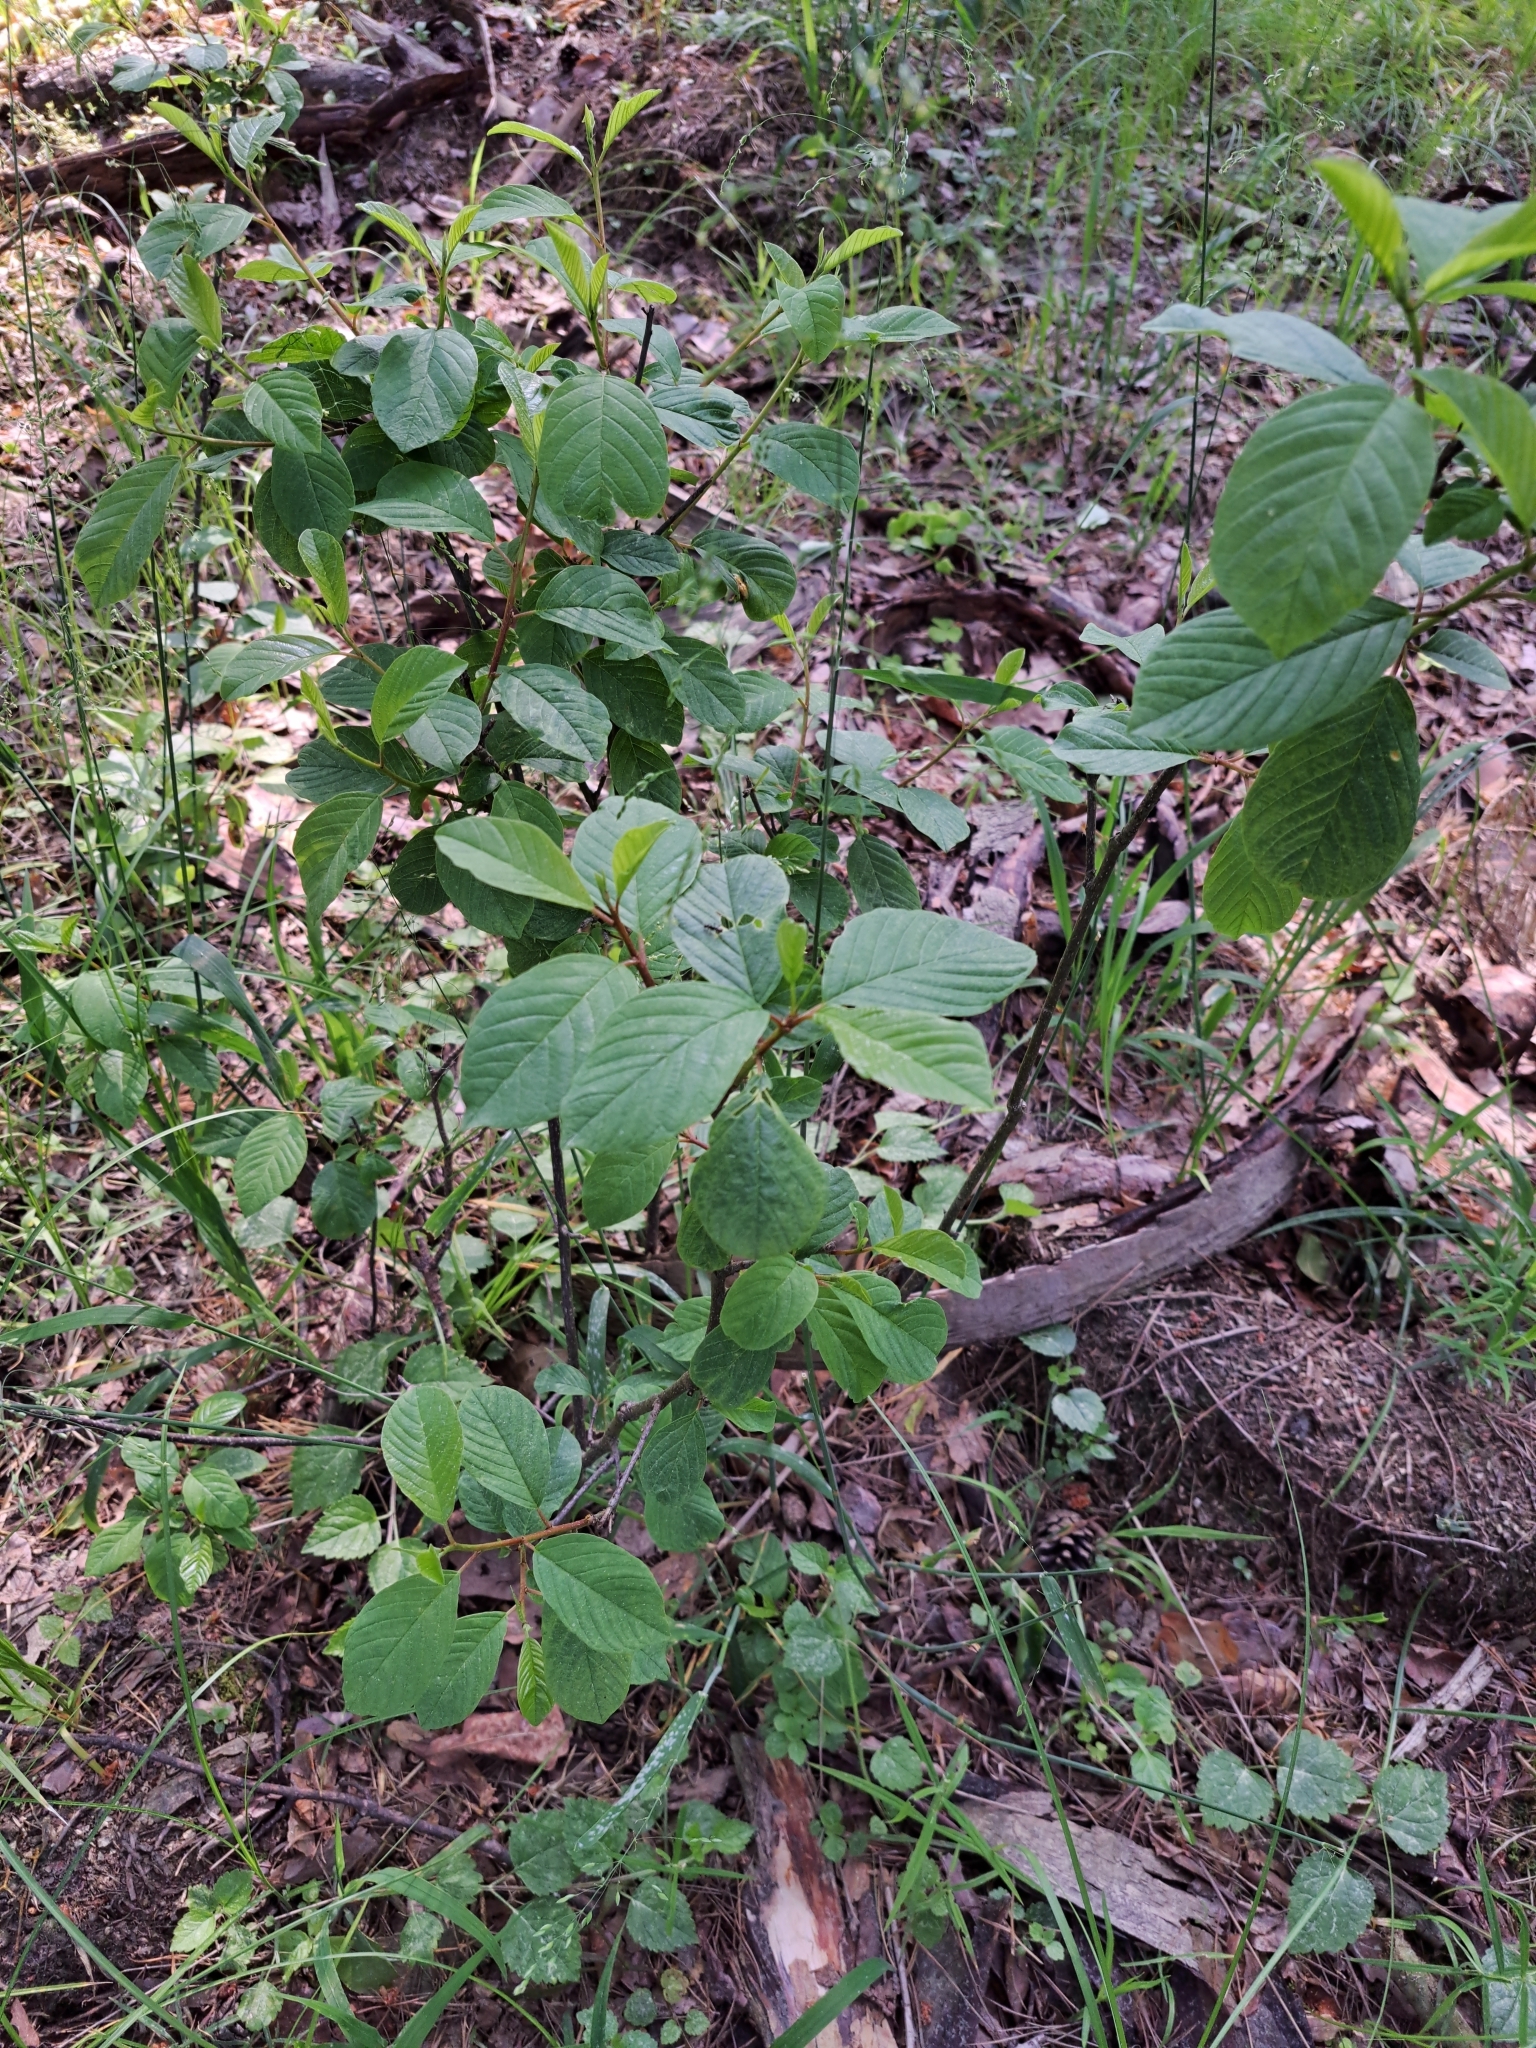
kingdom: Plantae
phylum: Tracheophyta
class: Magnoliopsida
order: Rosales
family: Rhamnaceae
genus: Frangula
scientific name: Frangula alnus
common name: Alder buckthorn
